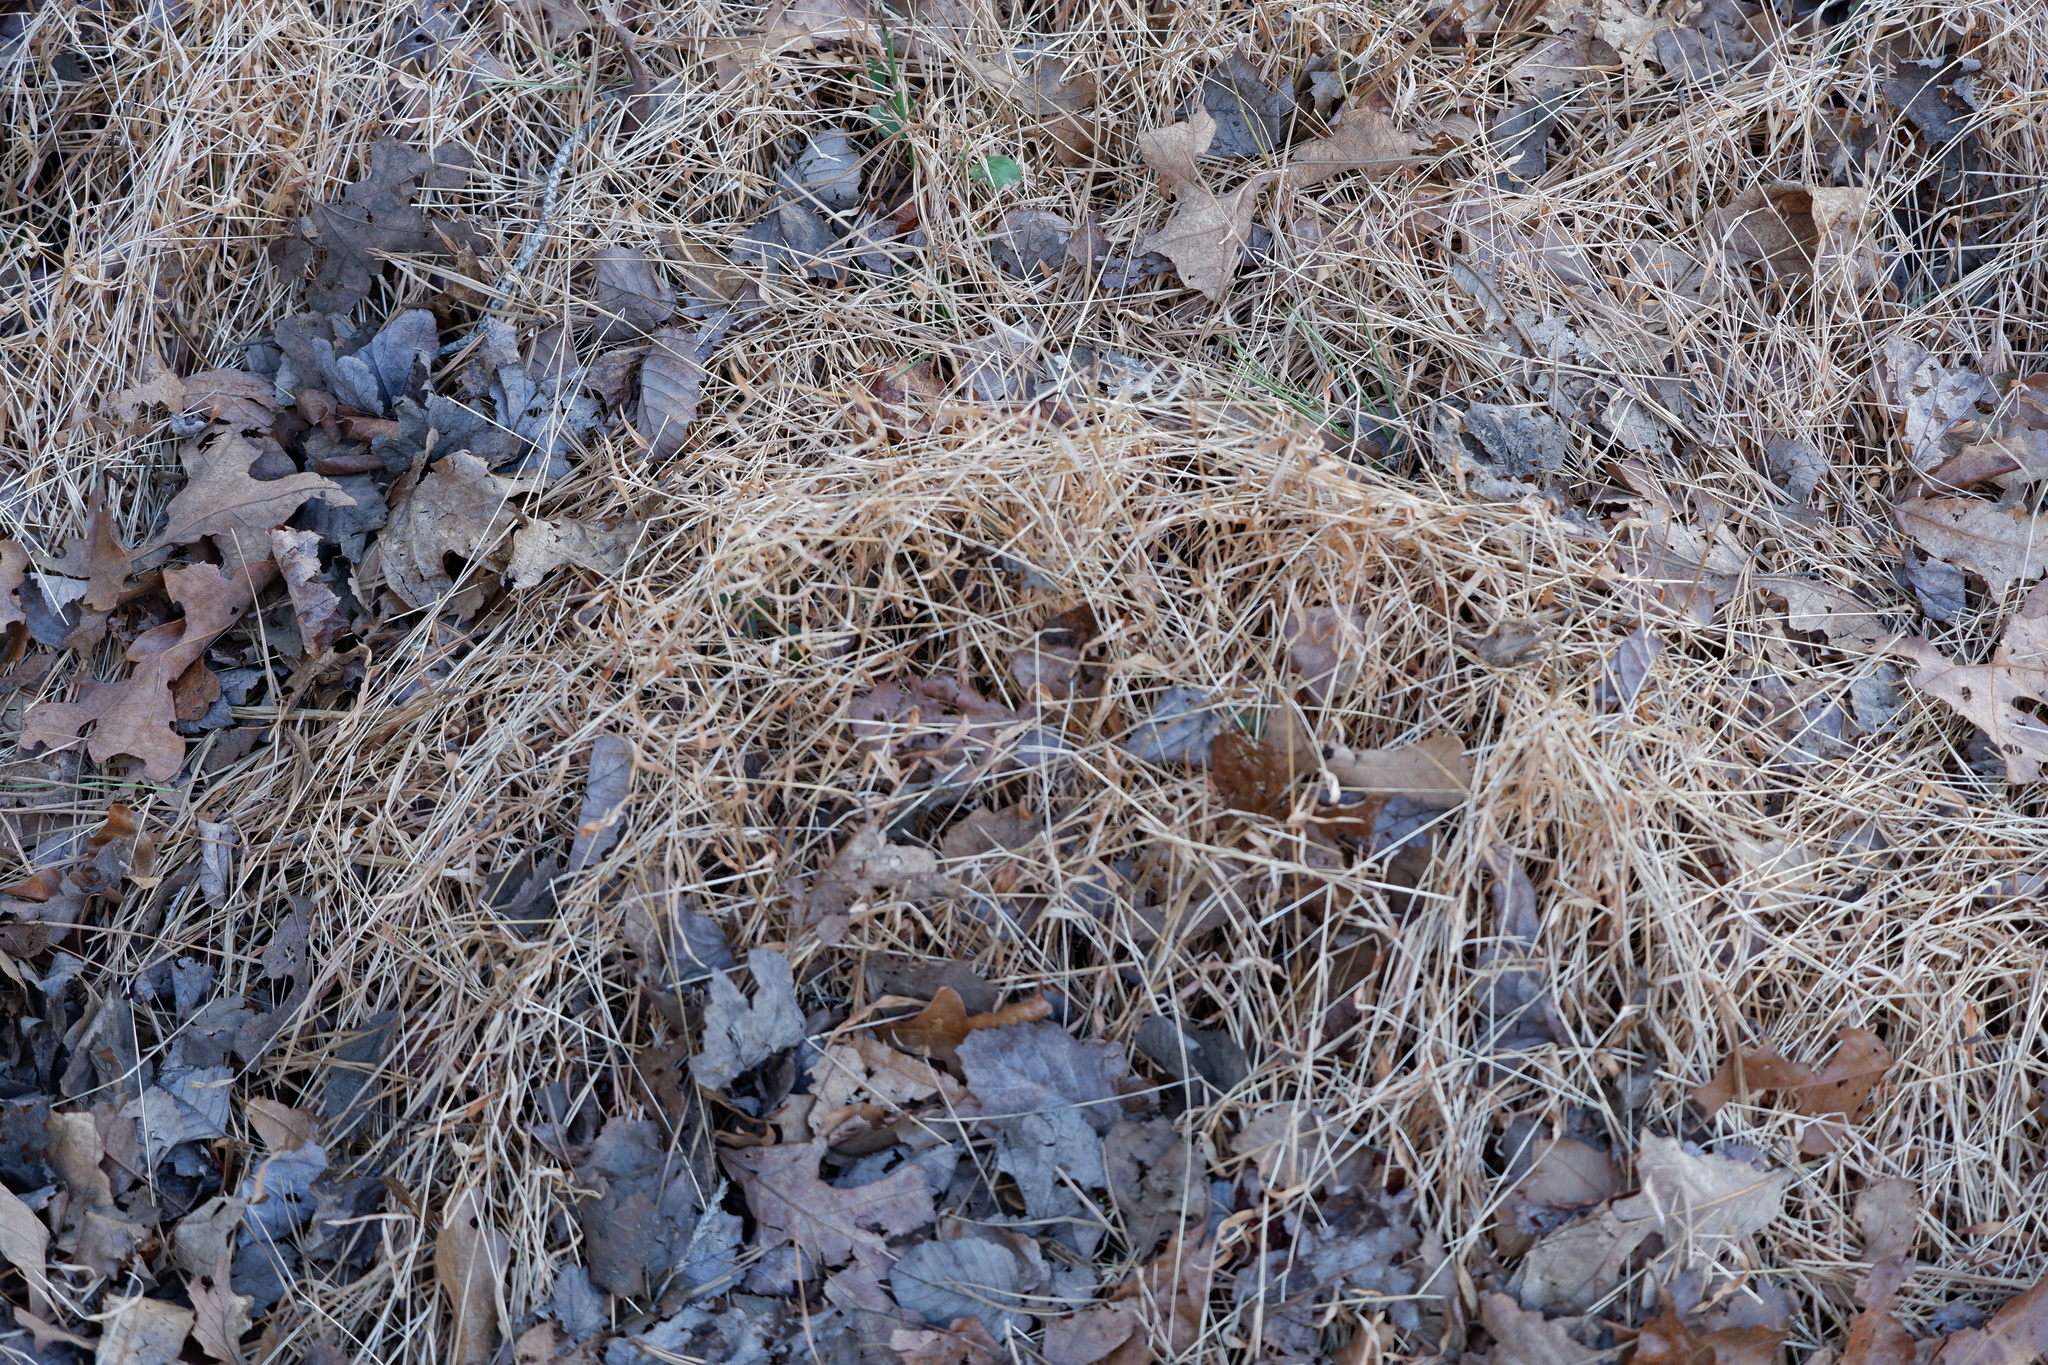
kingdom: Plantae
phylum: Tracheophyta
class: Liliopsida
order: Poales
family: Poaceae
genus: Microstegium
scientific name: Microstegium vimineum
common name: Japanese stiltgrass
